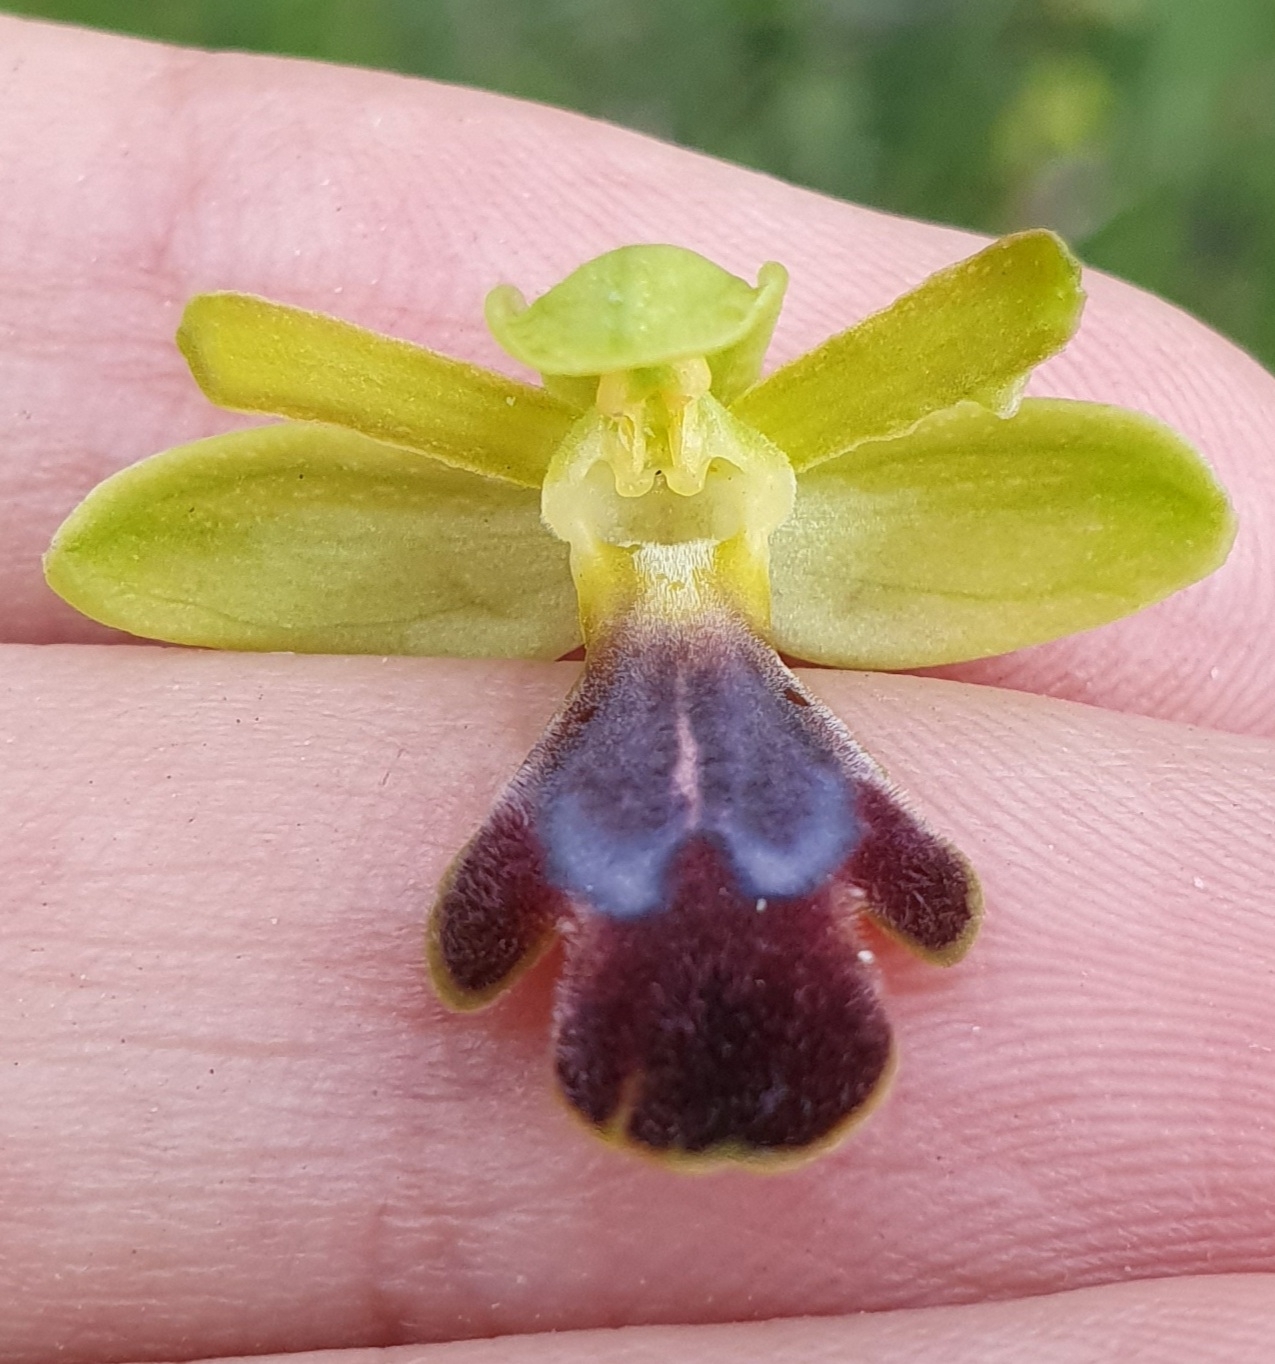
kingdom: Plantae
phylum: Tracheophyta
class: Liliopsida
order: Asparagales
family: Orchidaceae
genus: Ophrys
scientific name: Ophrys omegaifera
